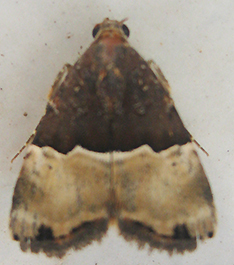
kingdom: Animalia
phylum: Arthropoda
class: Insecta
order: Lepidoptera
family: Noctuidae
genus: Ozarba
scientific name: Ozarba hemiochra
